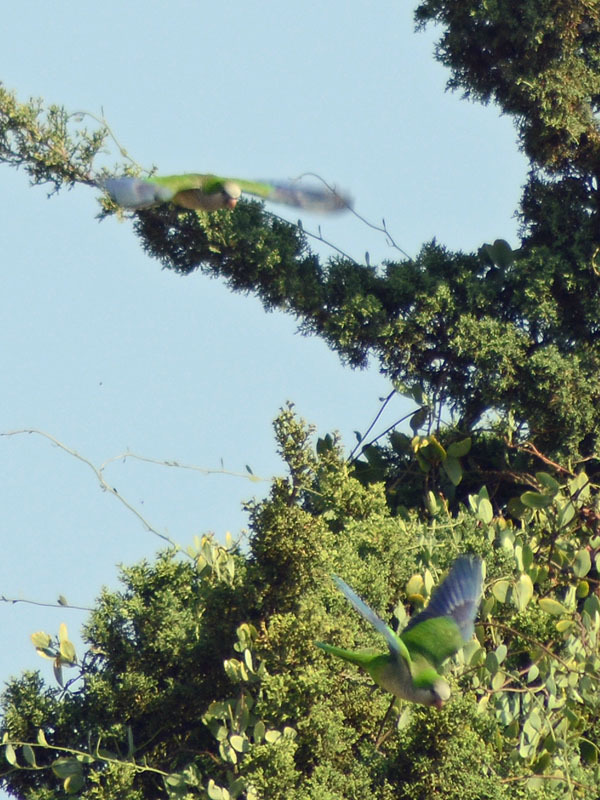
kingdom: Animalia
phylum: Chordata
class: Aves
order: Psittaciformes
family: Psittacidae
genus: Myiopsitta
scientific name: Myiopsitta monachus
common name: Monk parakeet
